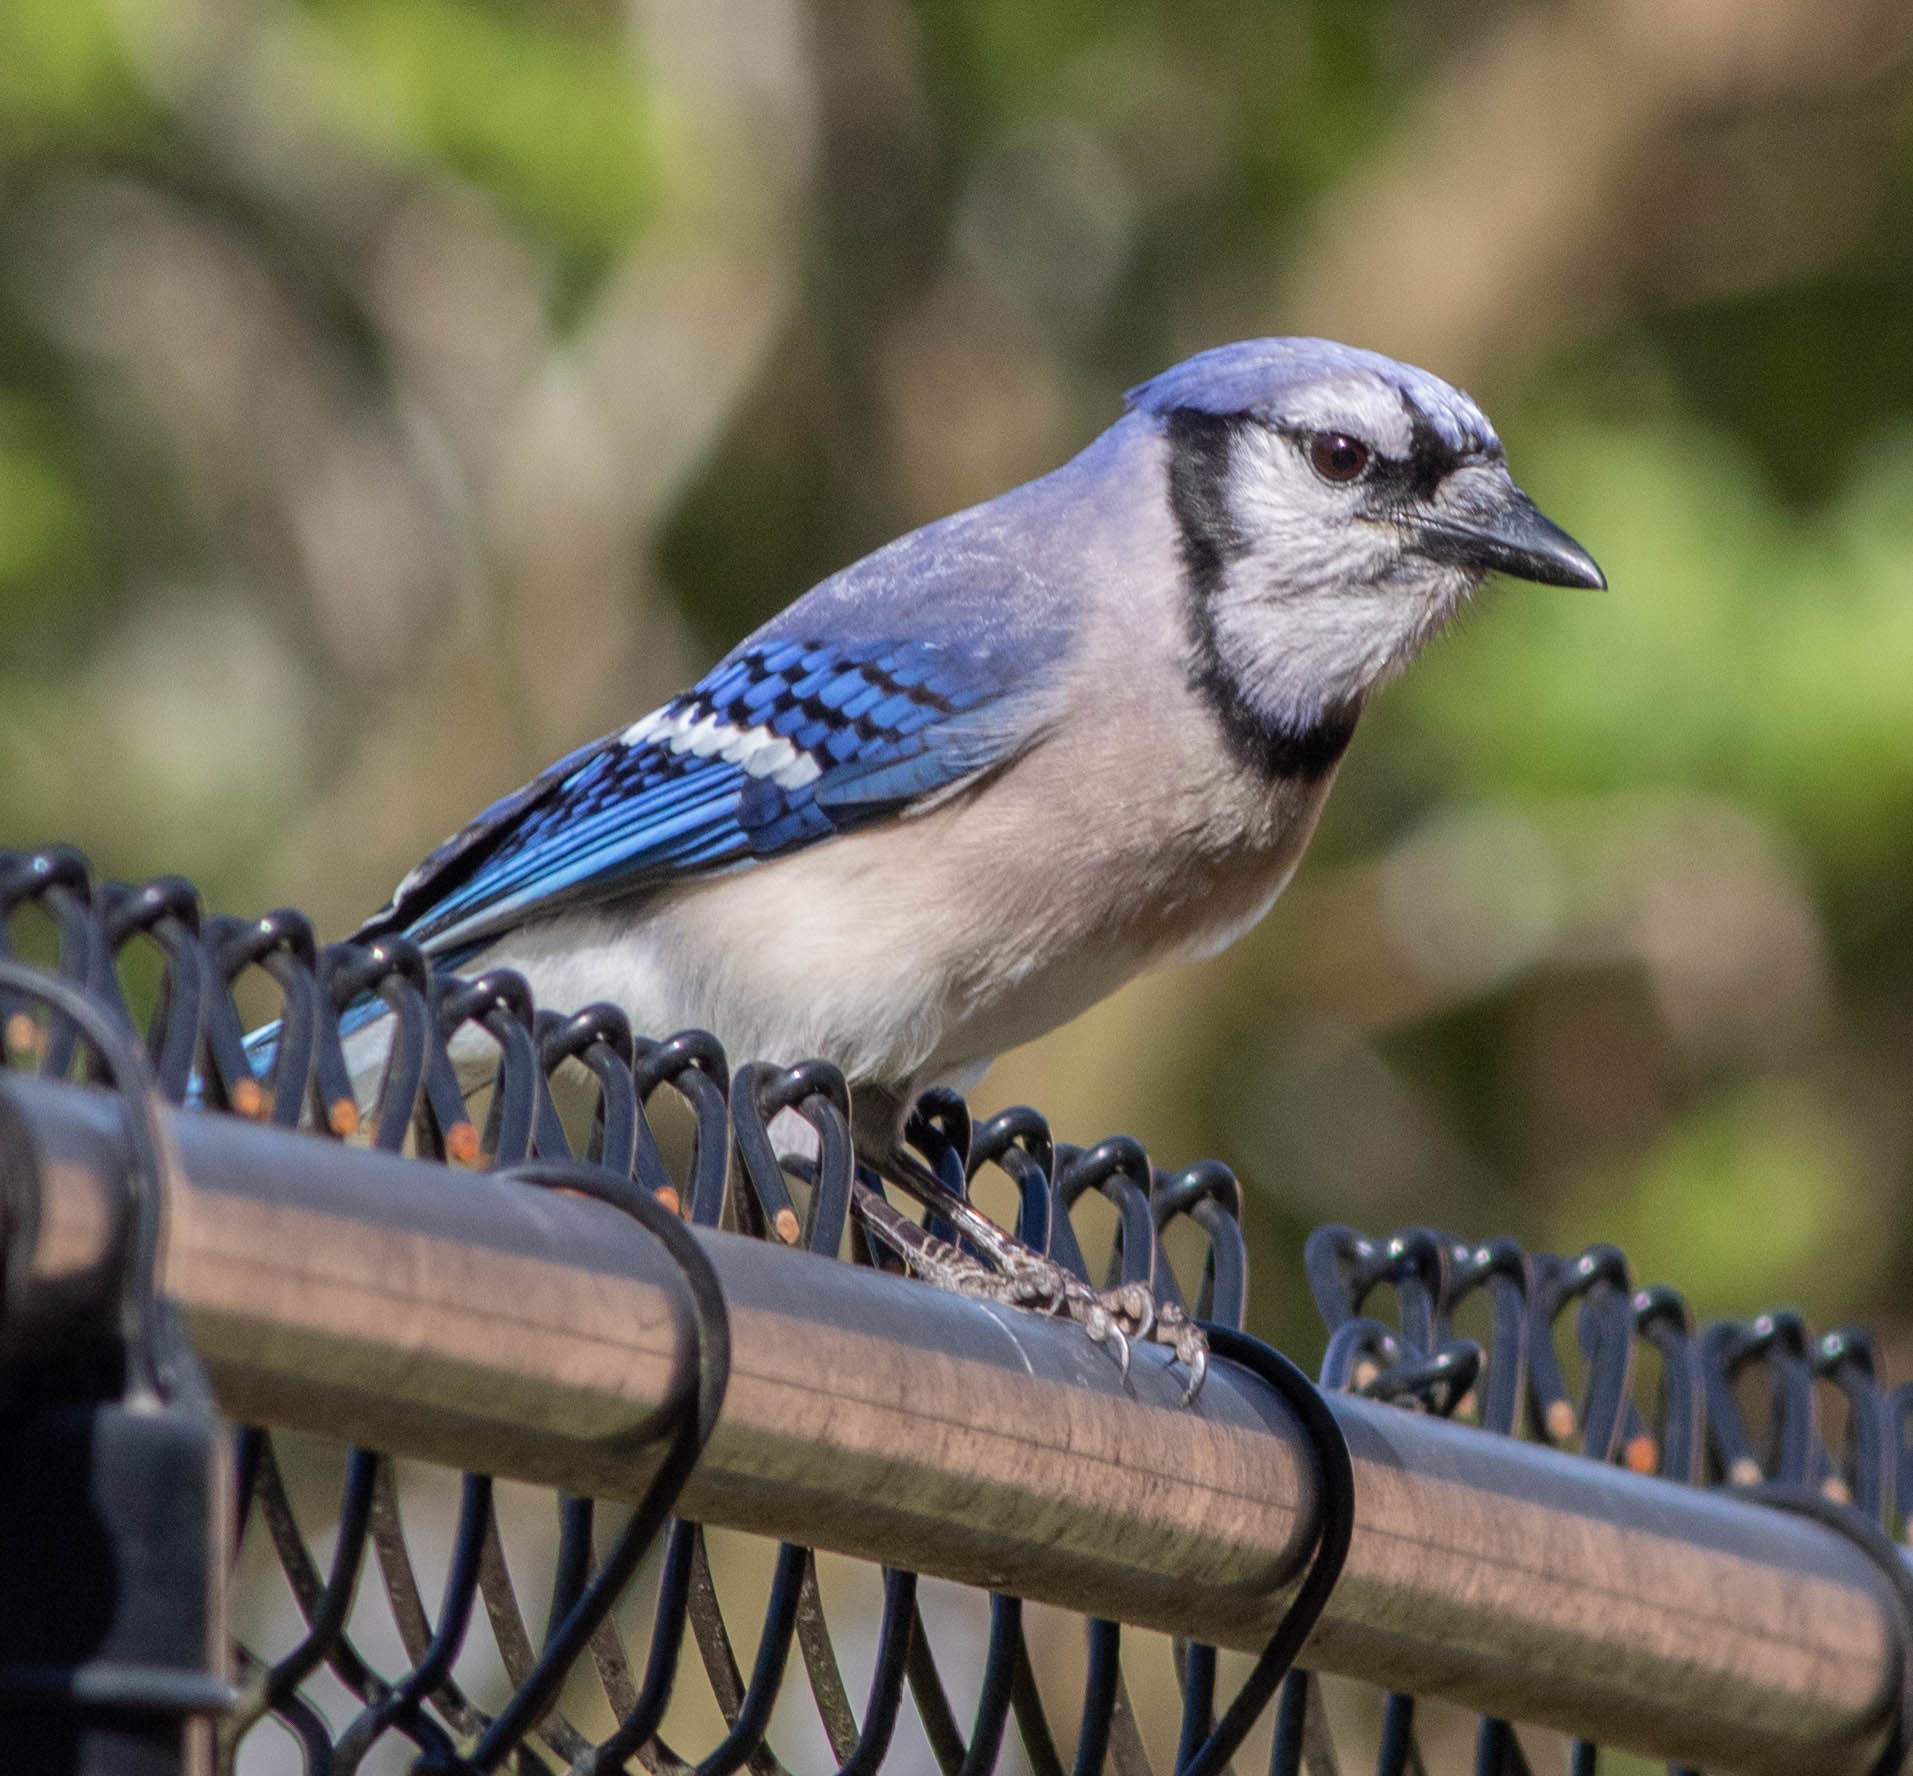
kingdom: Animalia
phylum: Chordata
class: Aves
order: Passeriformes
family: Corvidae
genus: Cyanocitta
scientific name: Cyanocitta cristata
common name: Blue jay
